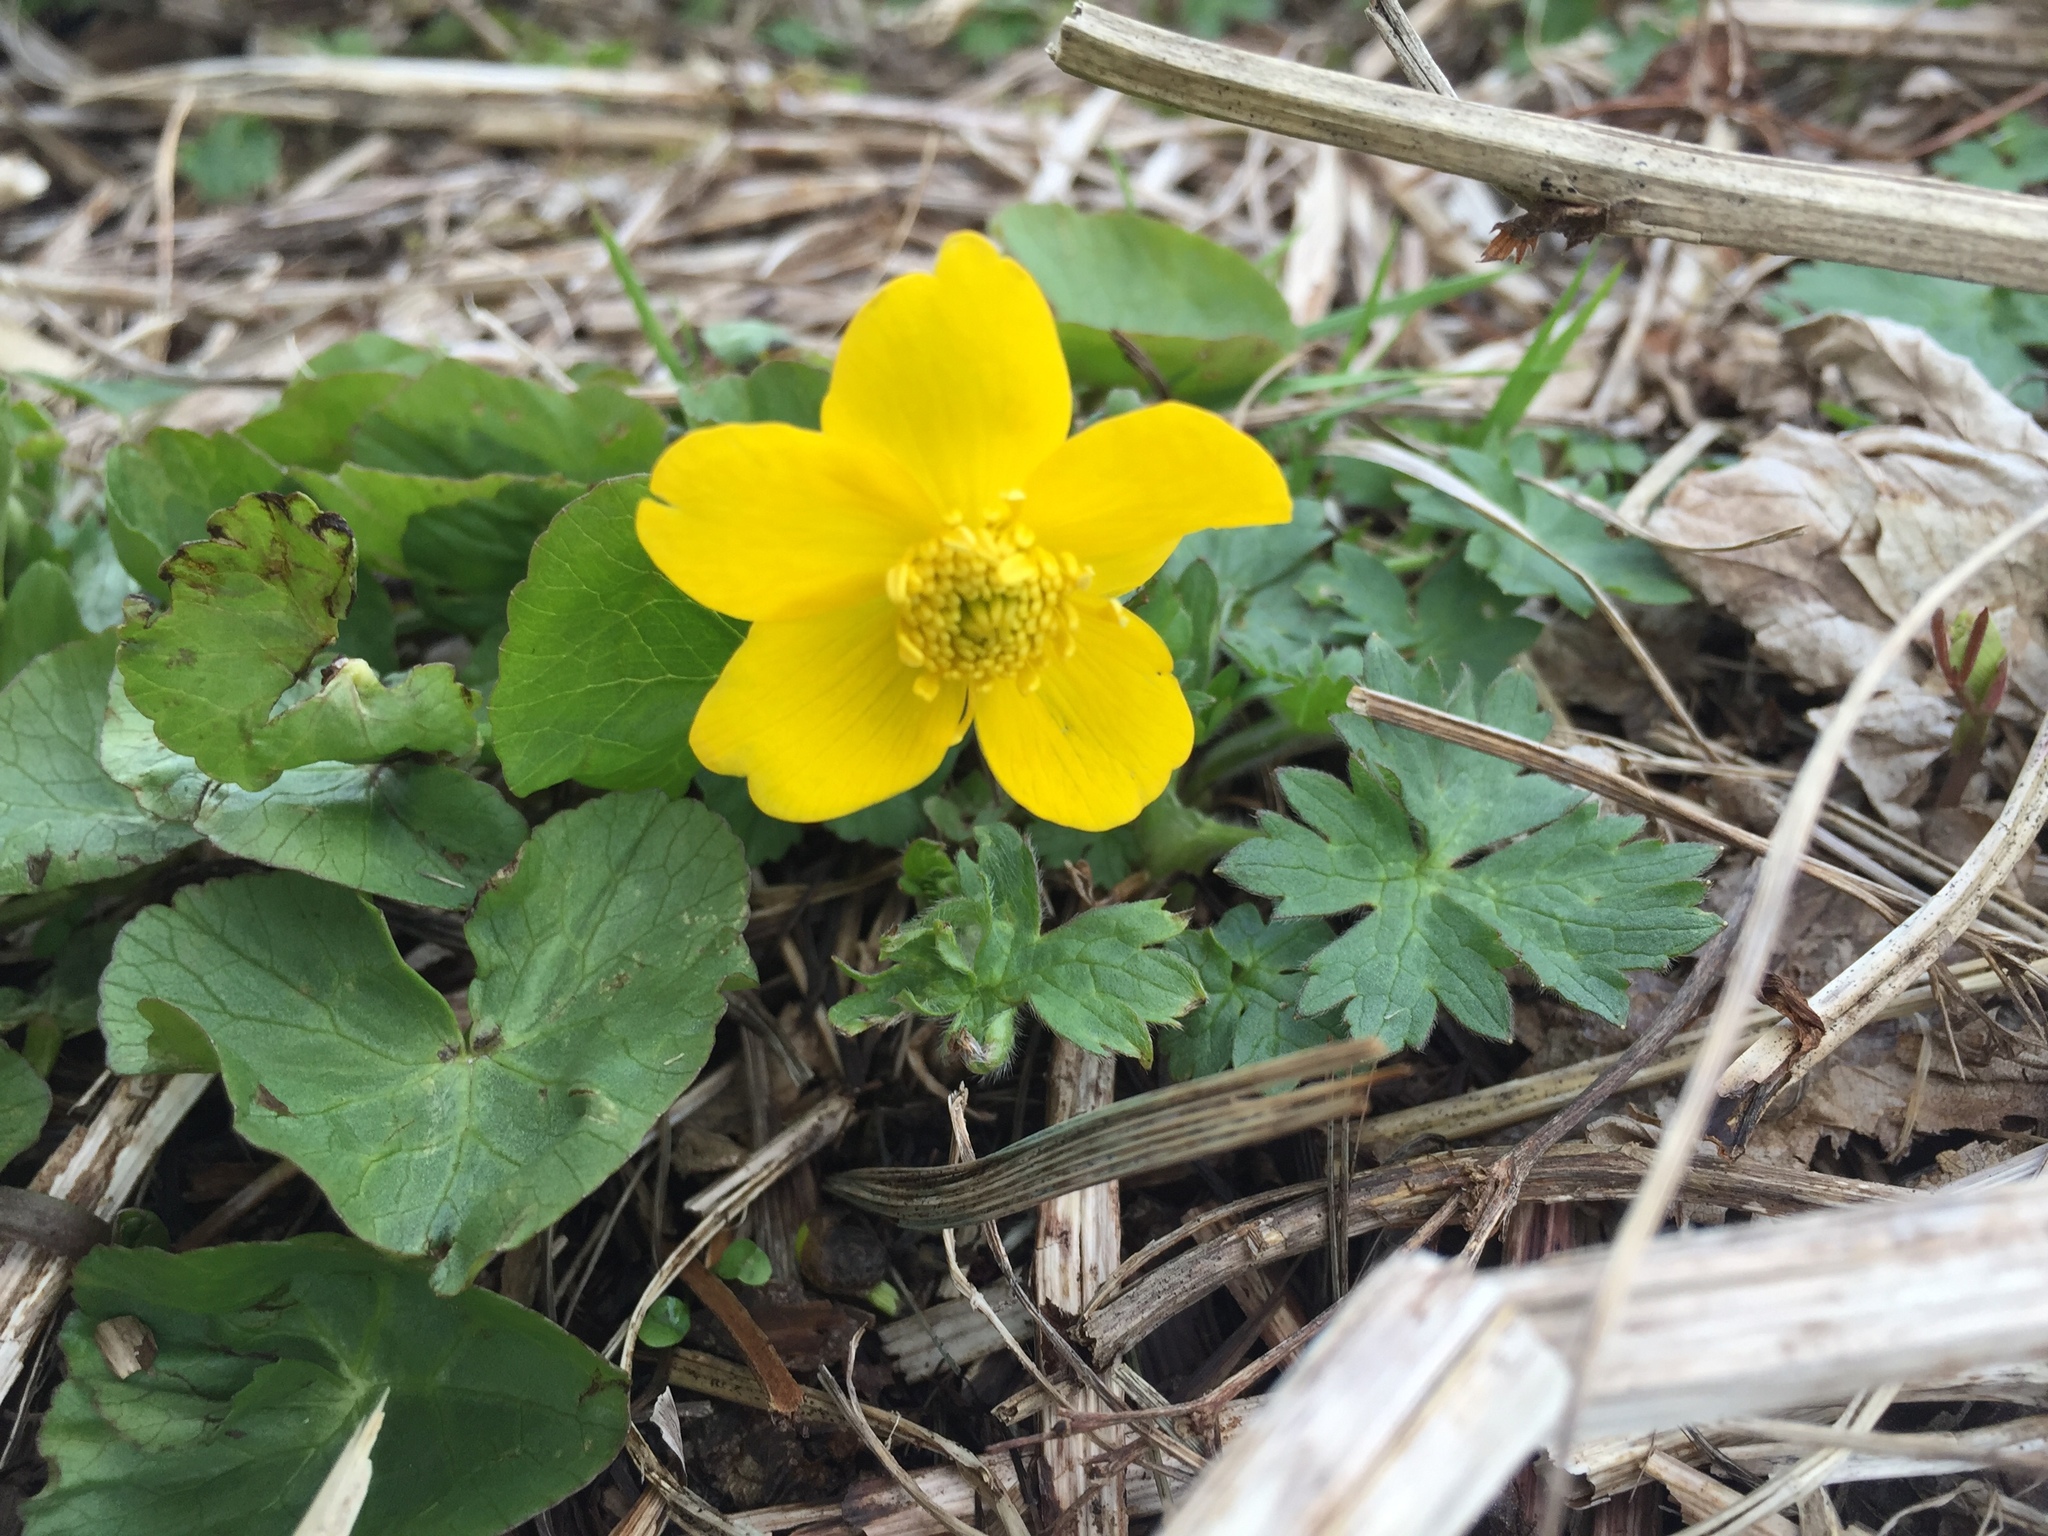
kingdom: Plantae
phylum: Tracheophyta
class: Magnoliopsida
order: Ranunculales
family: Ranunculaceae
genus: Caltha
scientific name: Caltha palustris
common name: Marsh marigold
